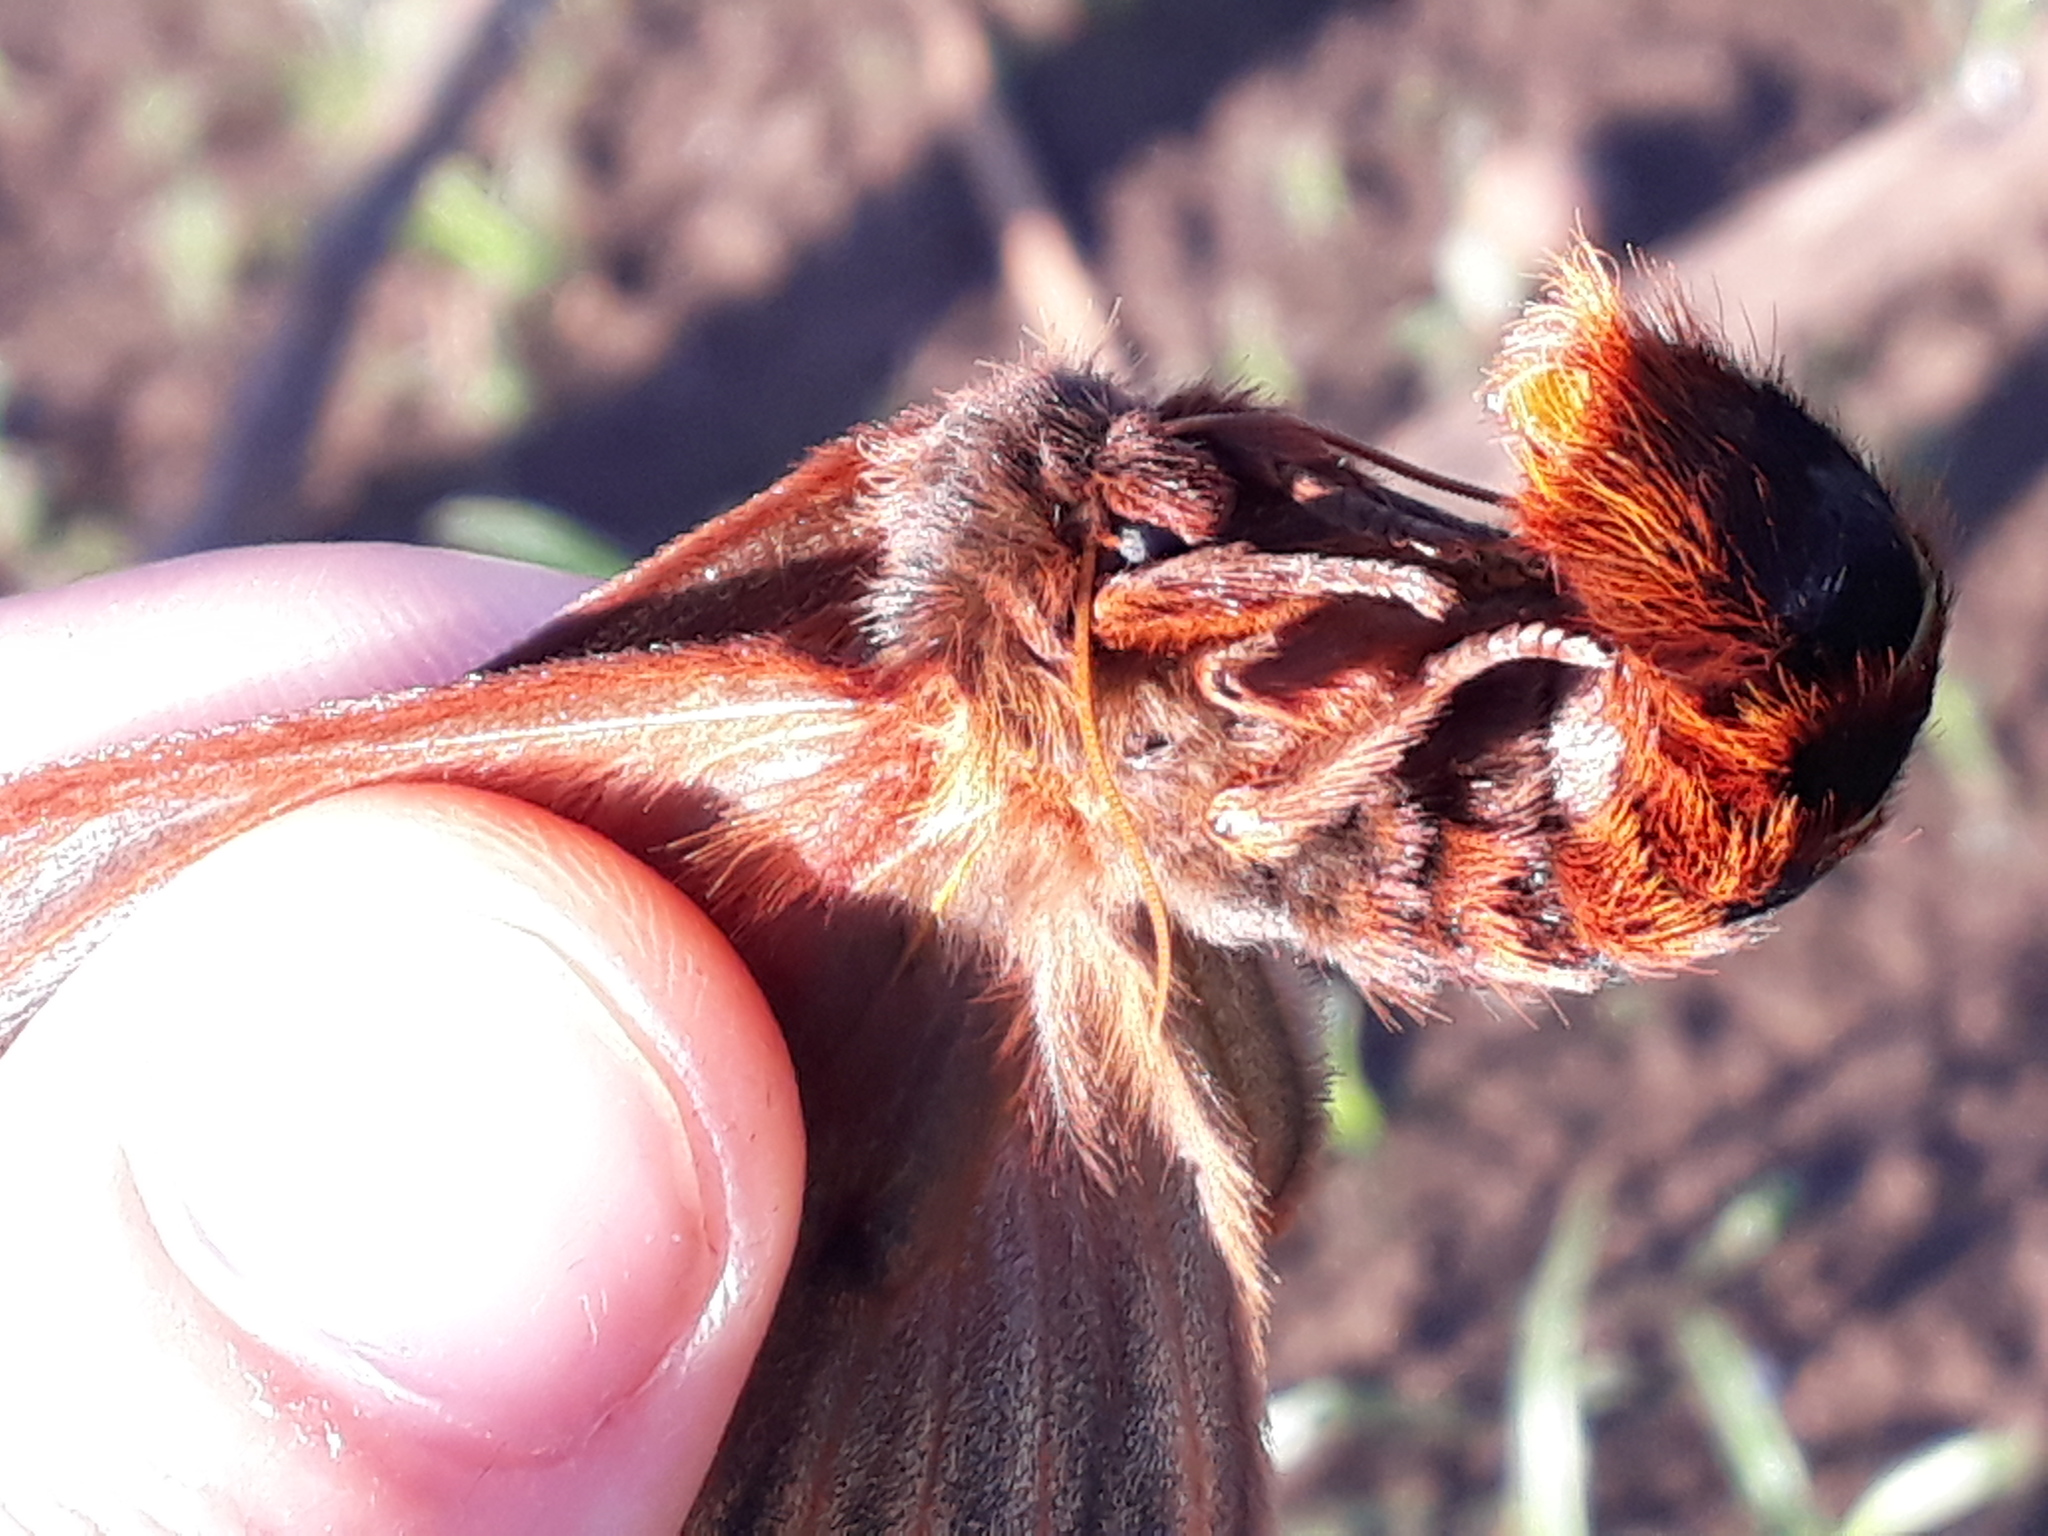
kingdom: Animalia
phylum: Arthropoda
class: Insecta
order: Lepidoptera
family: Saturniidae
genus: Heliconisa
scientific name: Heliconisa pagenstecheri
